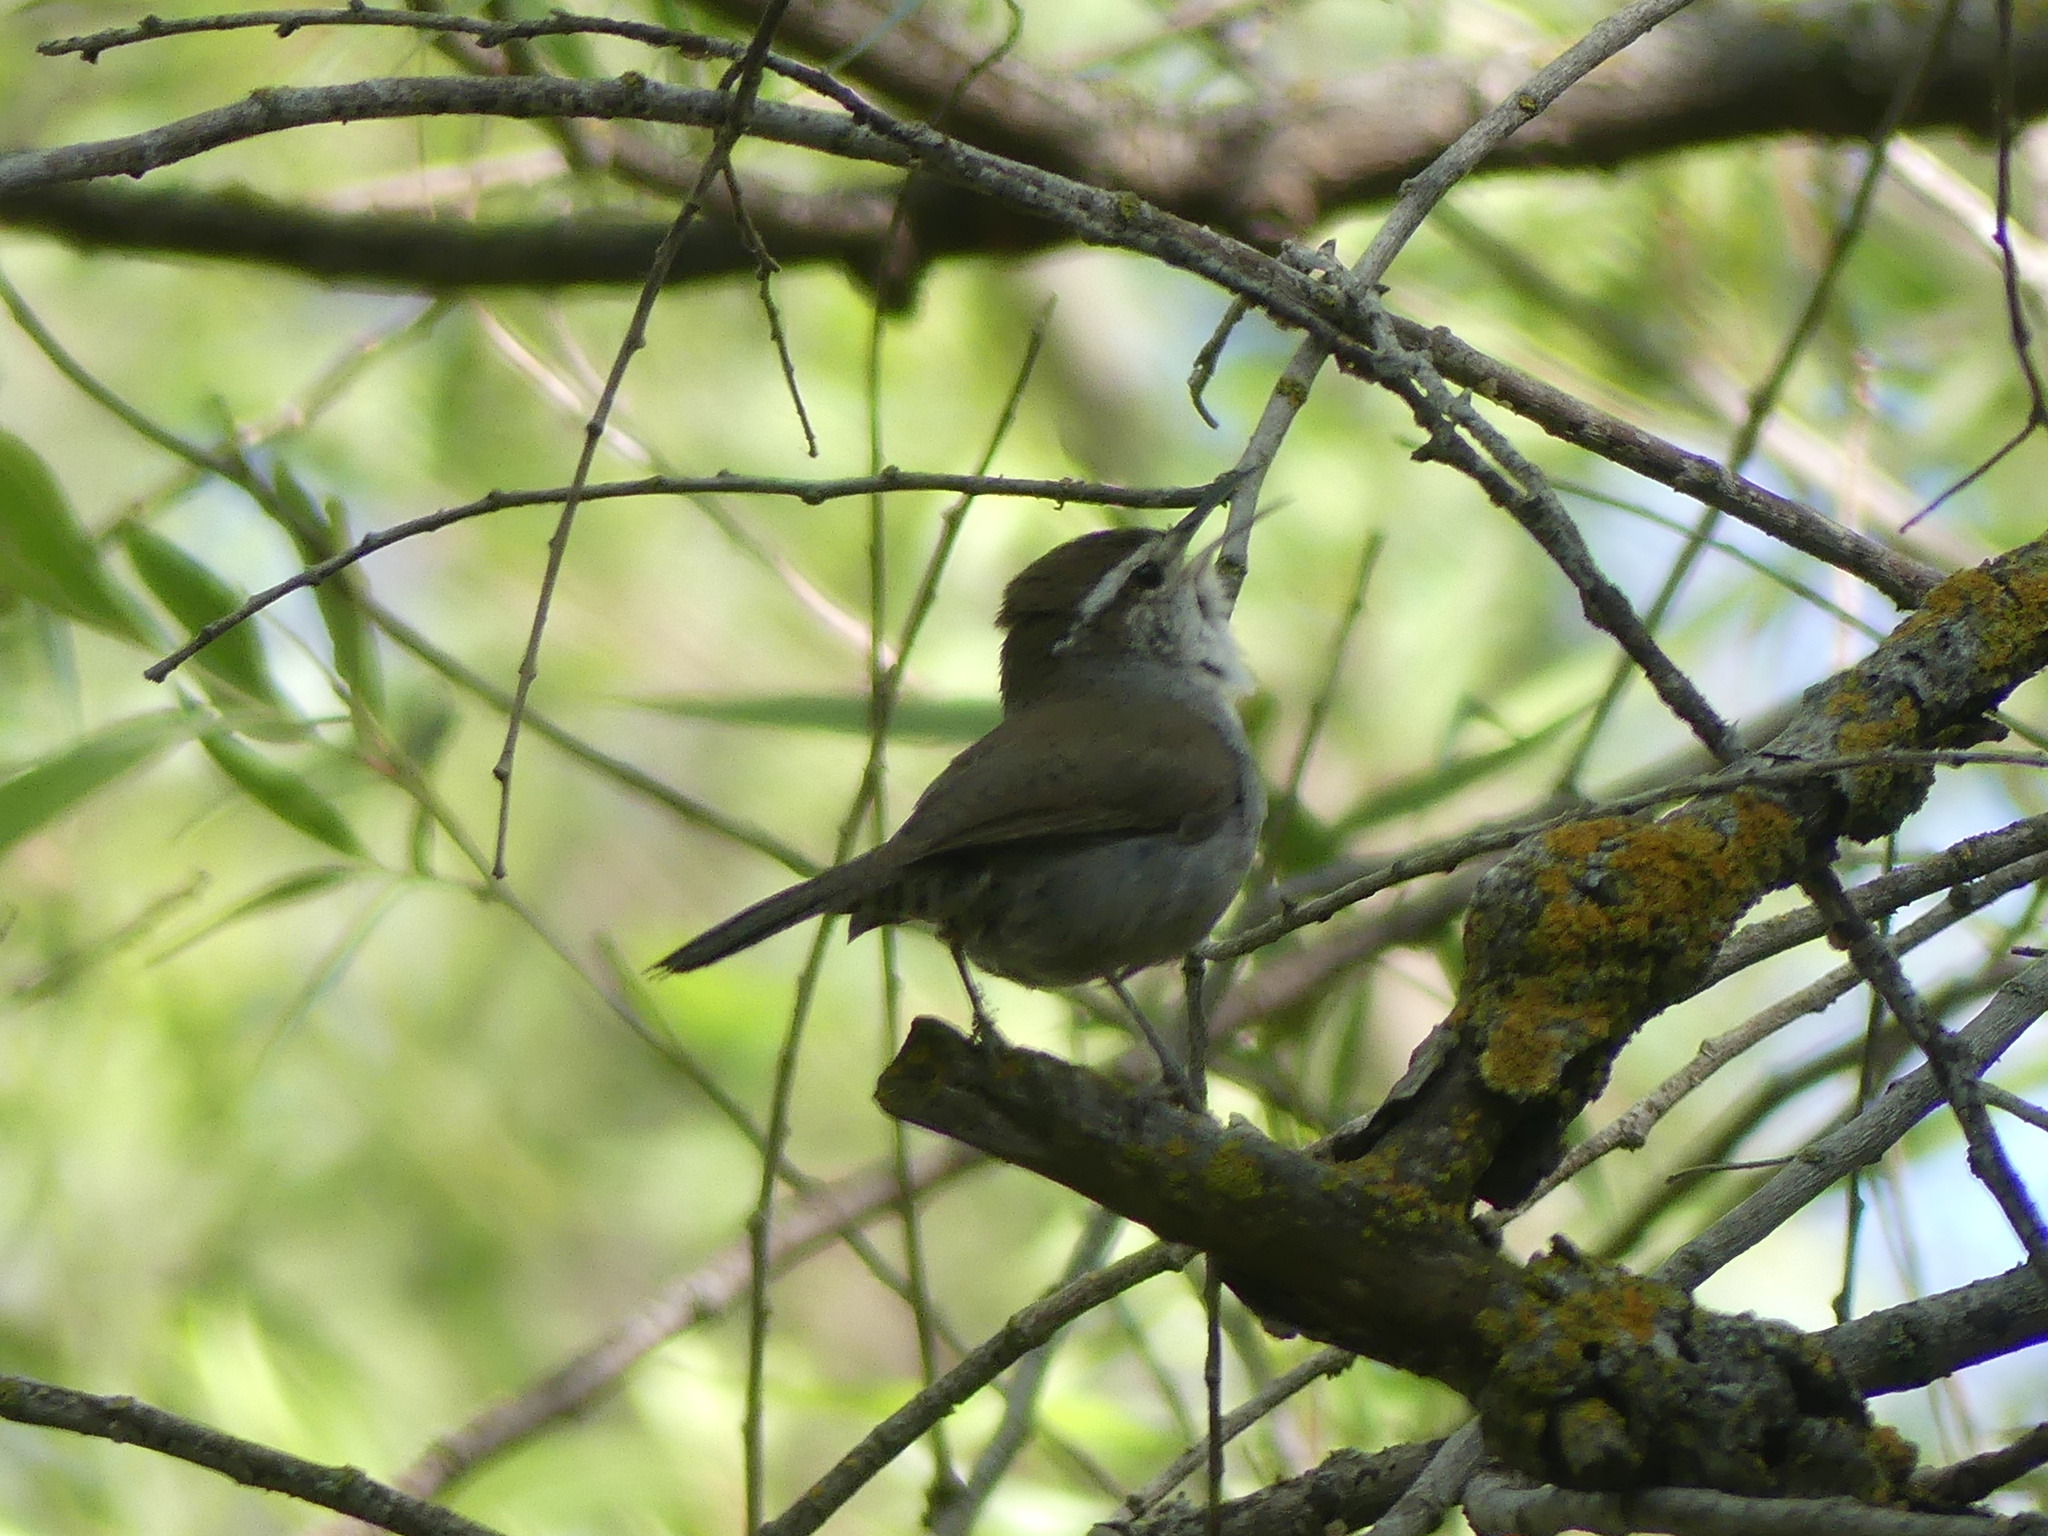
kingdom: Animalia
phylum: Chordata
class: Aves
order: Passeriformes
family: Troglodytidae
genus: Thryomanes
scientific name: Thryomanes bewickii
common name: Bewick's wren
